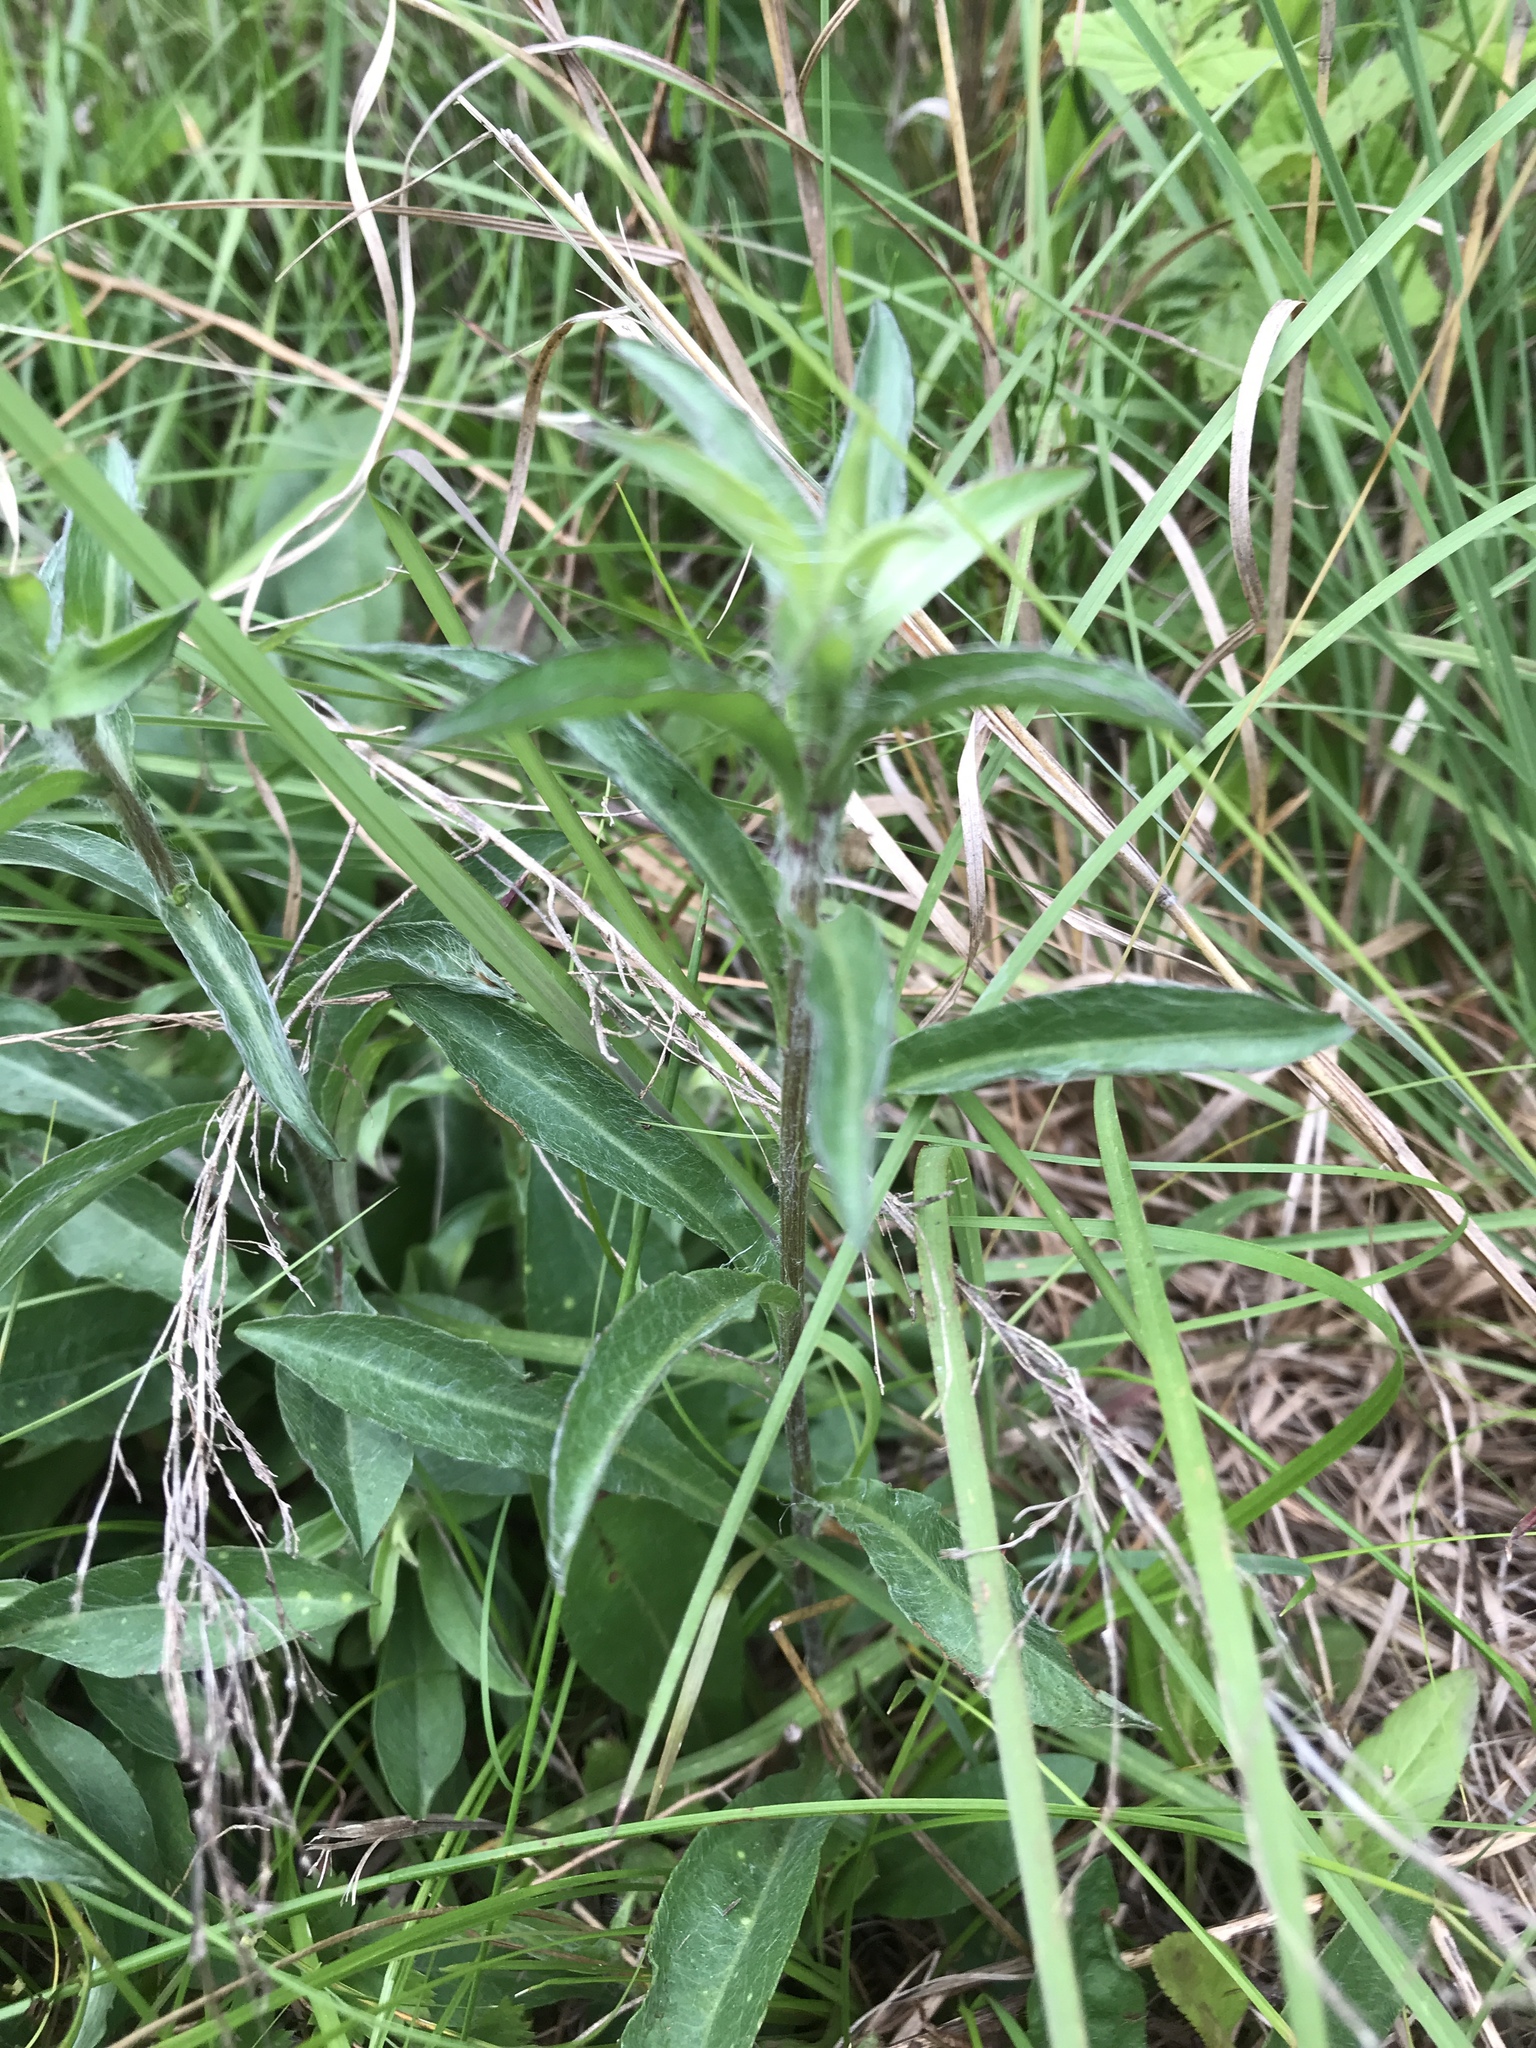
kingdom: Plantae
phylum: Tracheophyta
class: Magnoliopsida
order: Asterales
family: Asteraceae
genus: Chrysopsis
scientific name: Chrysopsis mariana
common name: Maryland golden-aster
